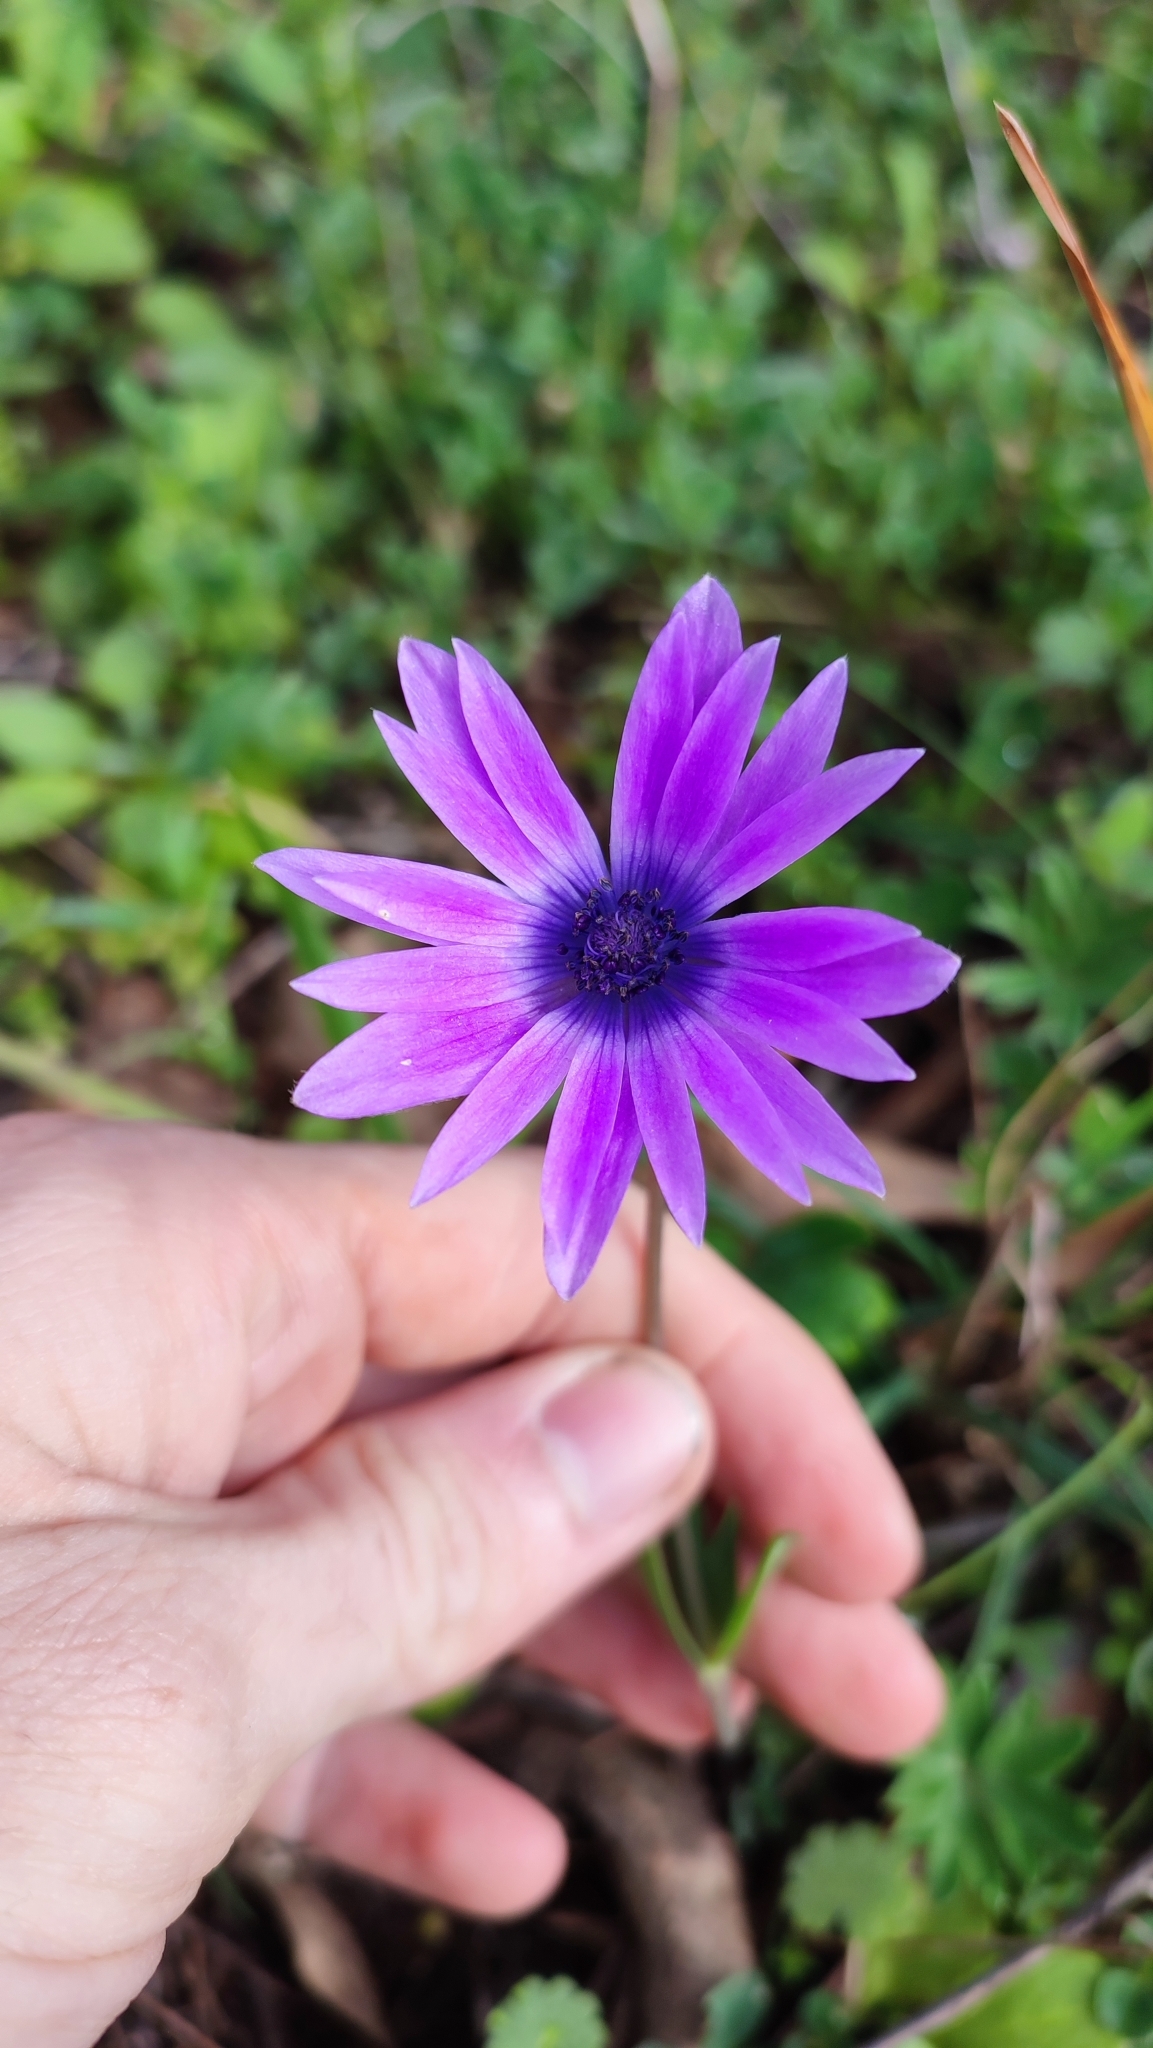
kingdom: Plantae
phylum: Tracheophyta
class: Magnoliopsida
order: Ranunculales
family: Ranunculaceae
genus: Anemone
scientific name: Anemone hortensis
